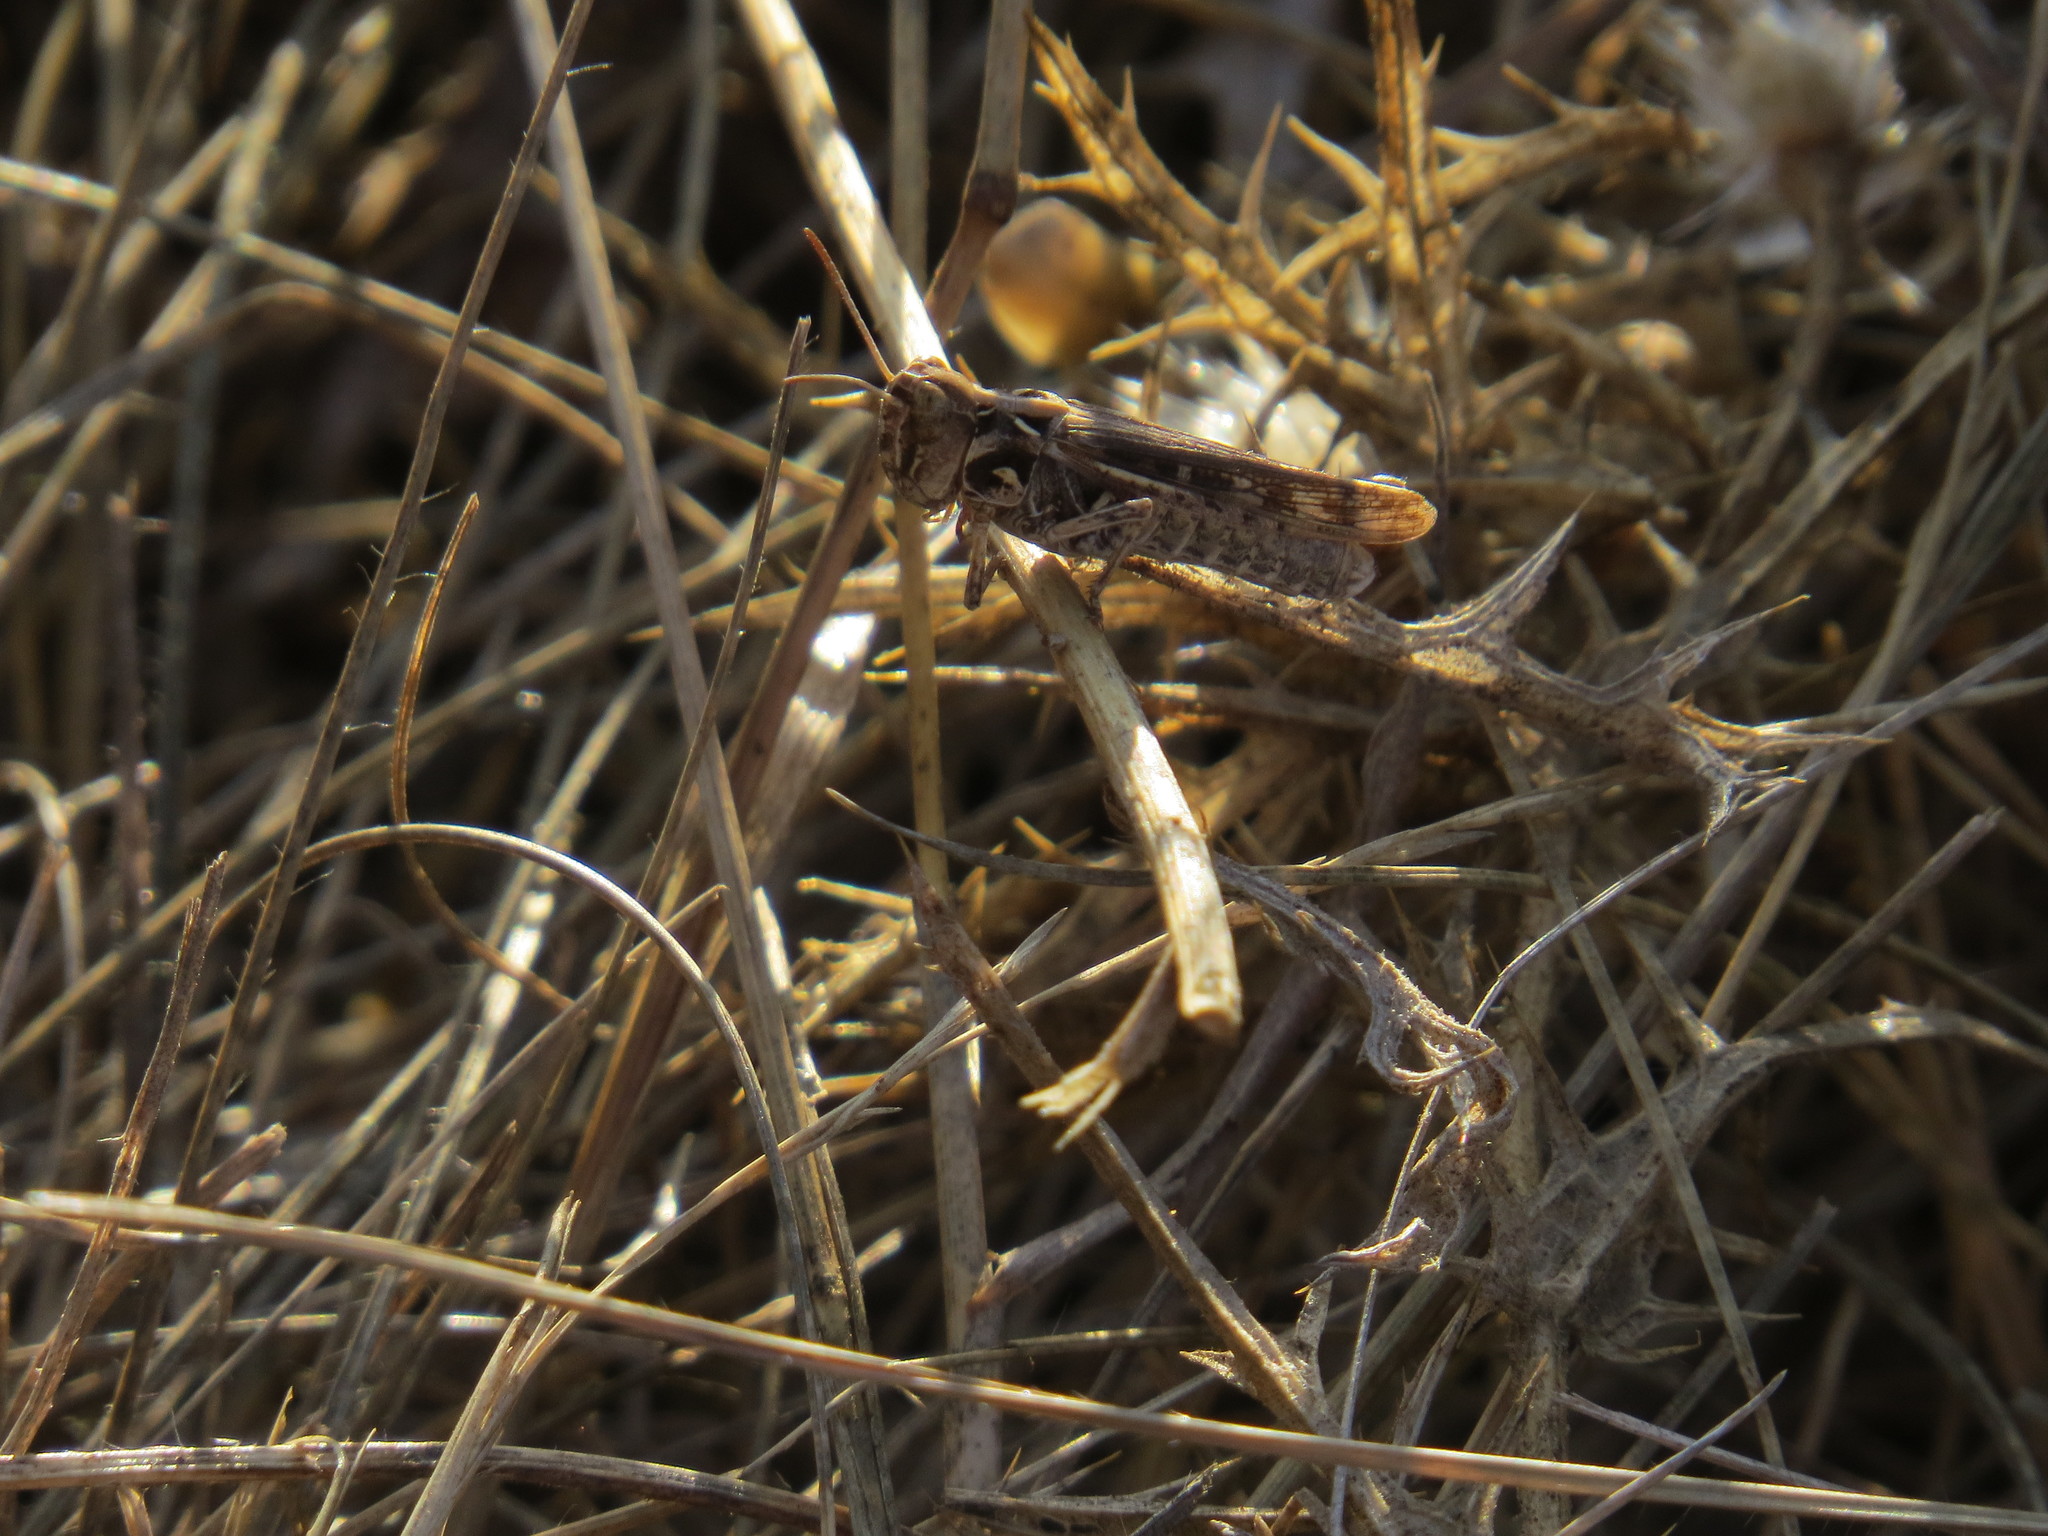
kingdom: Animalia
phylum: Arthropoda
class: Insecta
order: Orthoptera
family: Acrididae
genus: Dociostaurus
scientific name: Dociostaurus jagoi
